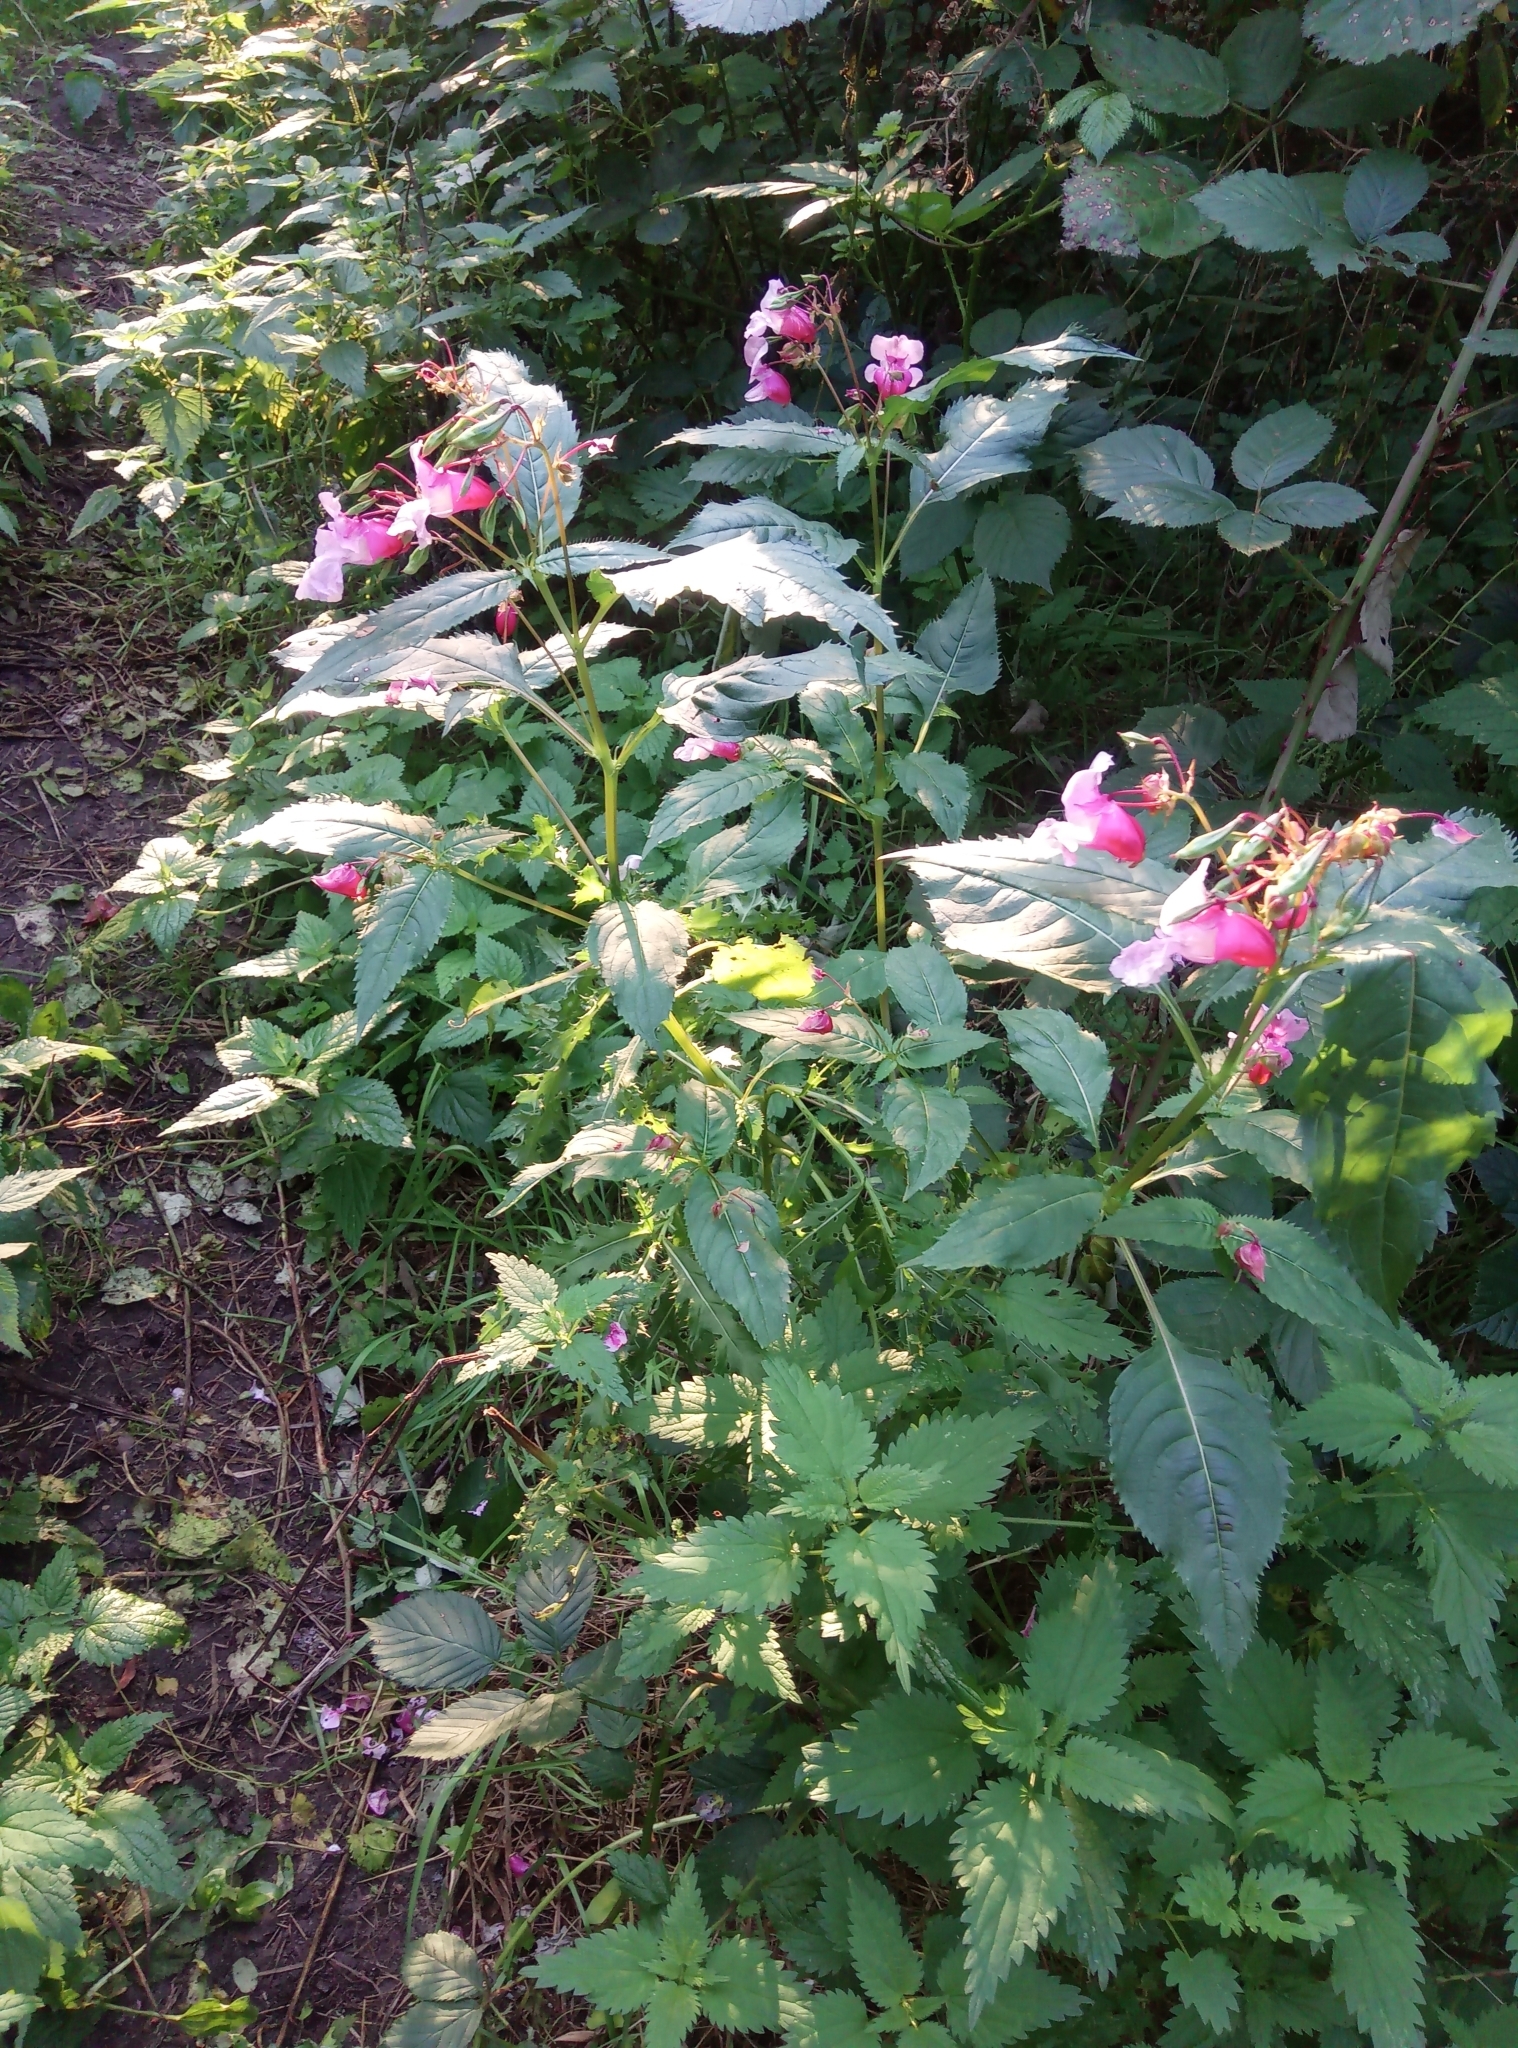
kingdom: Plantae
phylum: Tracheophyta
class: Magnoliopsida
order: Ericales
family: Balsaminaceae
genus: Impatiens
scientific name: Impatiens glandulifera
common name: Himalayan balsam
